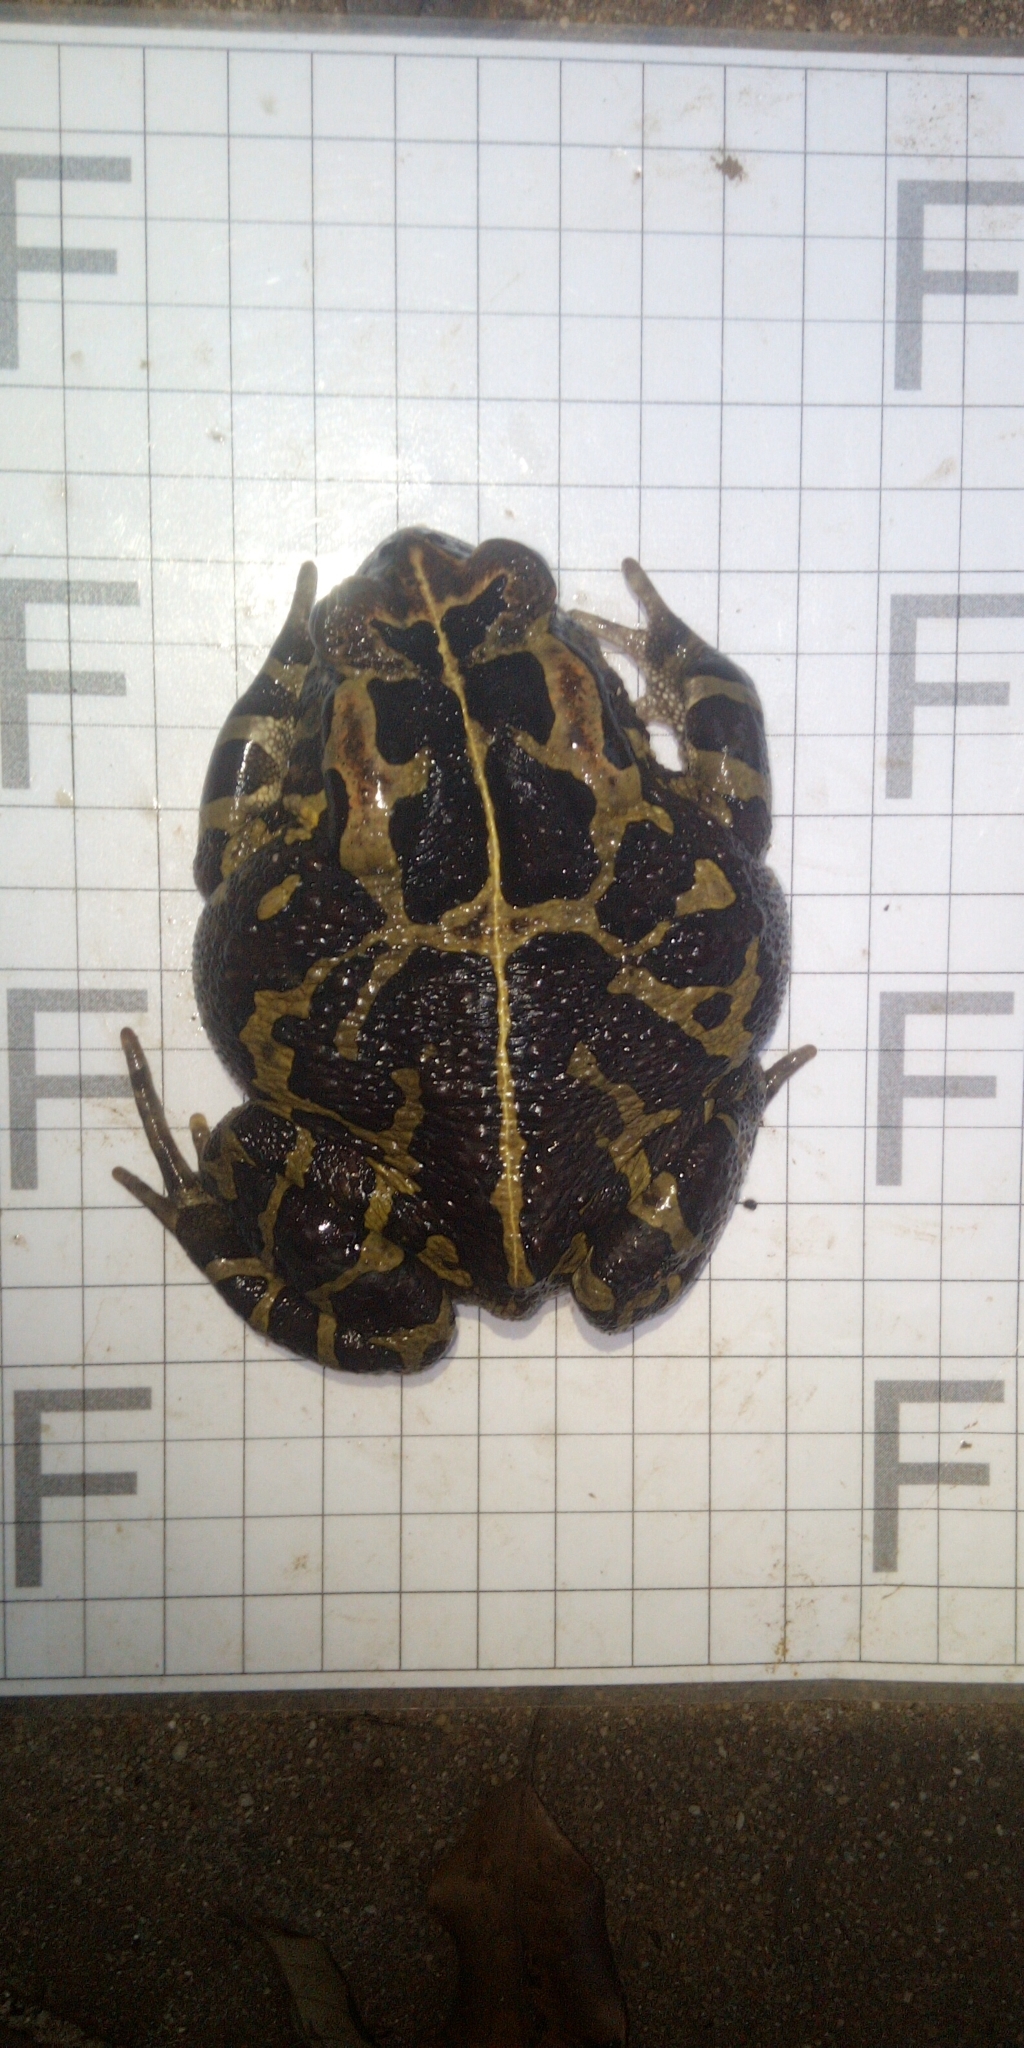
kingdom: Animalia
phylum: Chordata
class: Amphibia
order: Anura
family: Bufonidae
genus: Sclerophrys
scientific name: Sclerophrys pantherina
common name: Panther toad
